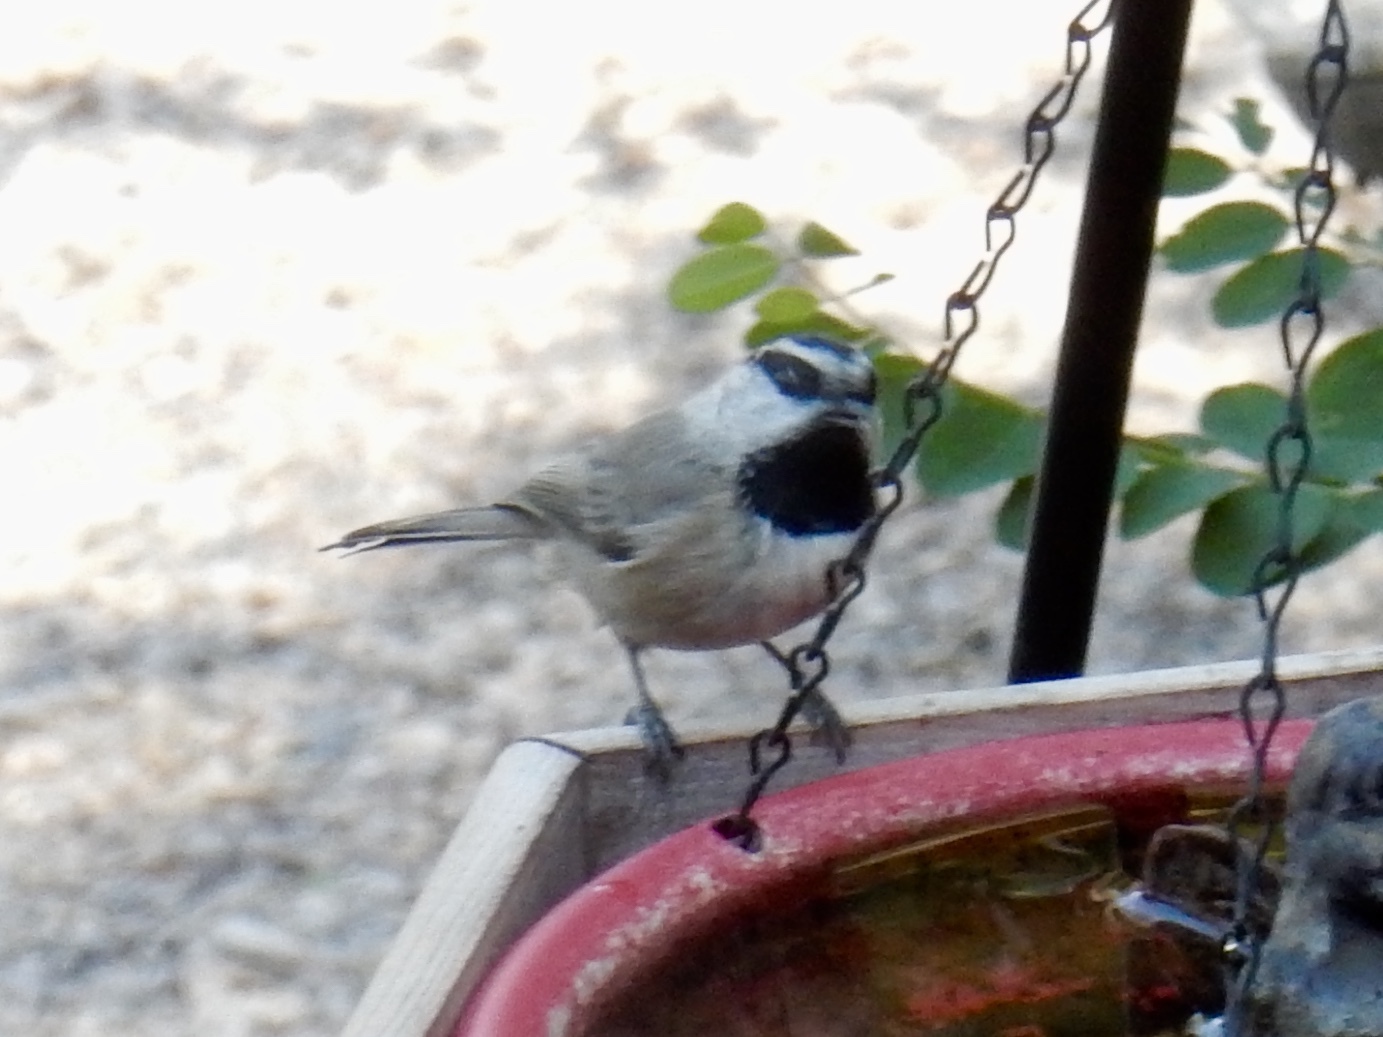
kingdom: Animalia
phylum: Chordata
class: Aves
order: Passeriformes
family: Paridae
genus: Poecile
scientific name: Poecile gambeli
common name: Mountain chickadee
